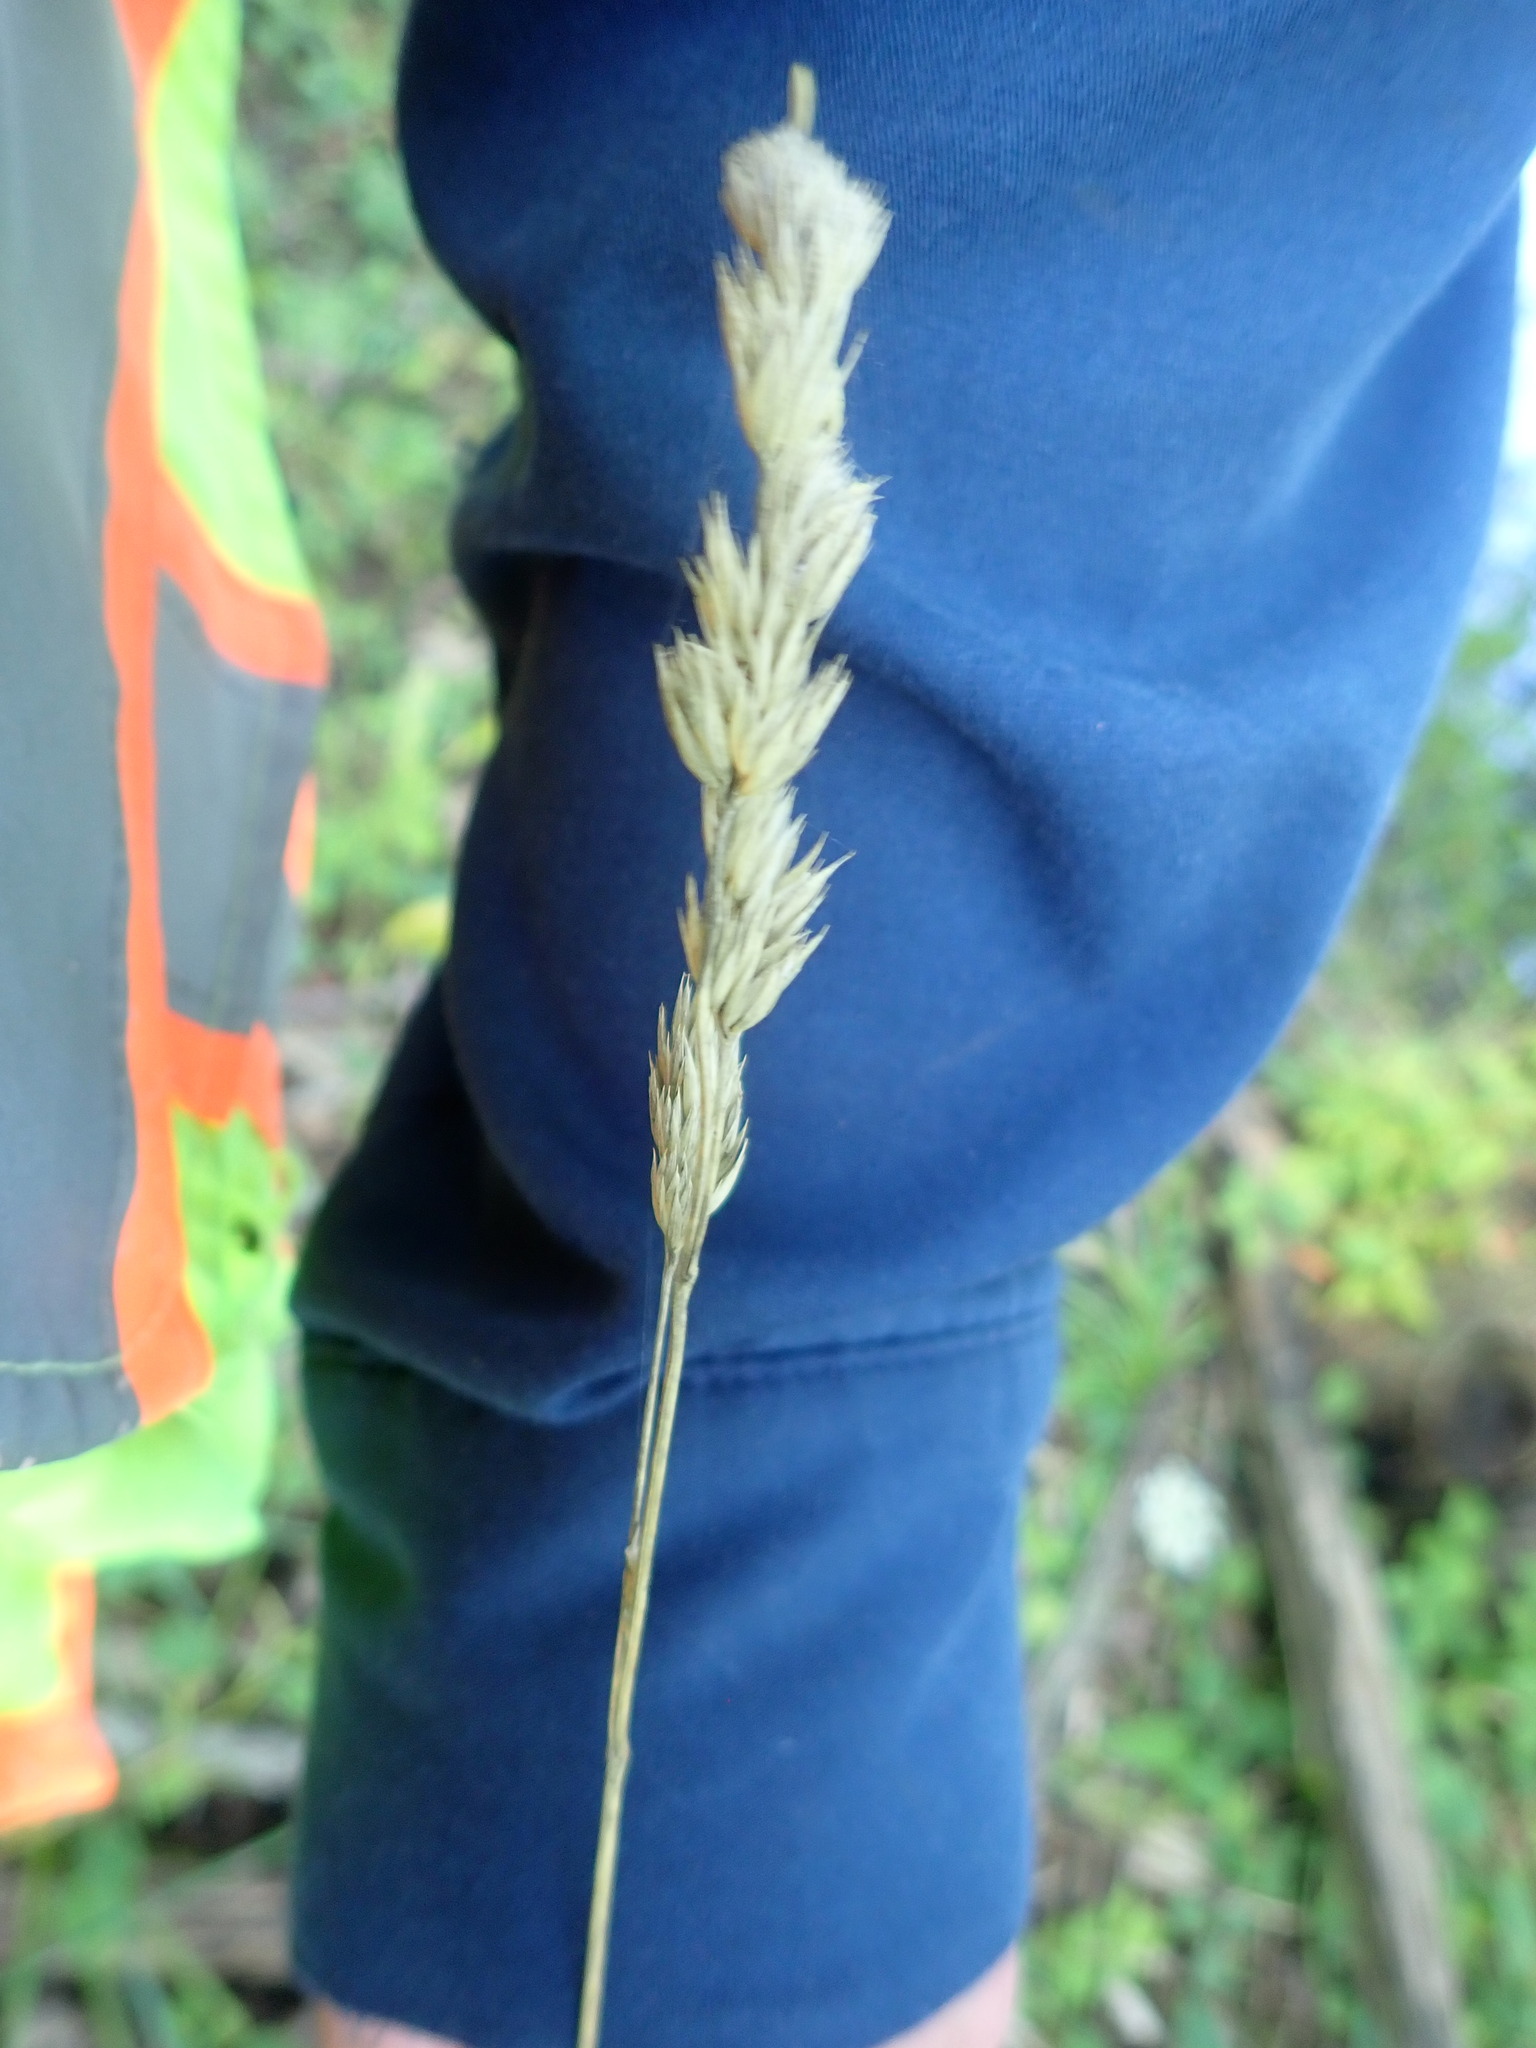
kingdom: Plantae
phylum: Tracheophyta
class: Liliopsida
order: Poales
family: Poaceae
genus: Dactylis
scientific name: Dactylis glomerata
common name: Orchardgrass
